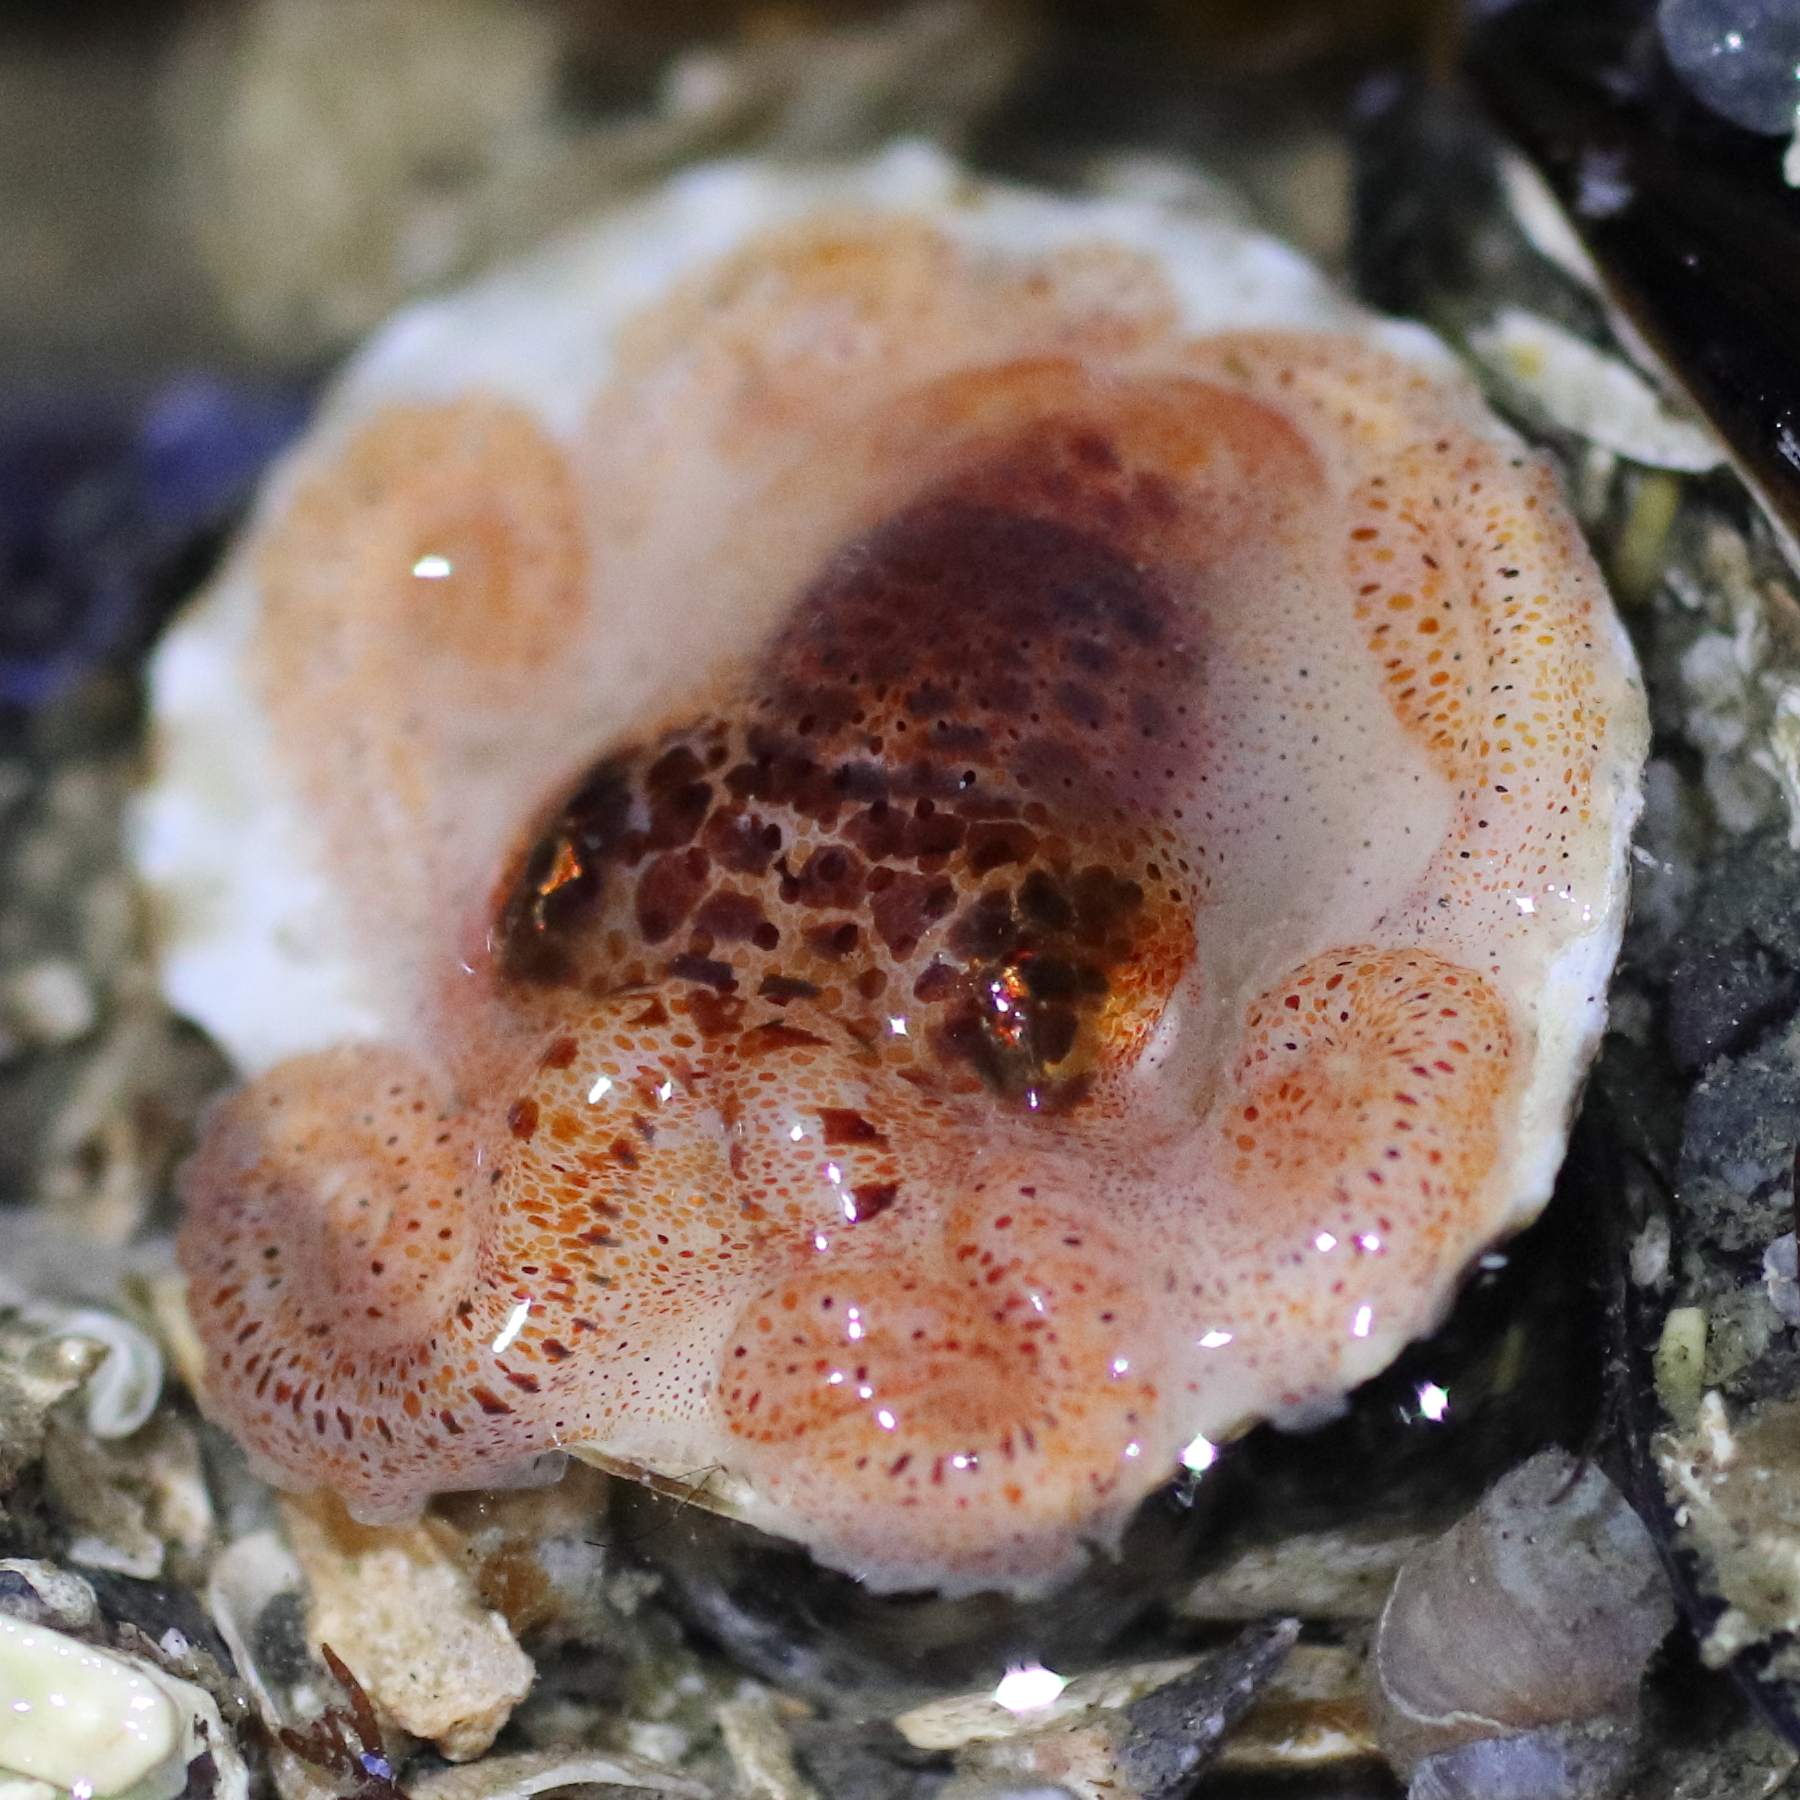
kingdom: Animalia
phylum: Mollusca
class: Cephalopoda
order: Octopoda
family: Enteroctopodidae
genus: Enteroctopus
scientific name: Enteroctopus dofleini
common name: Giant north pacific octopus
